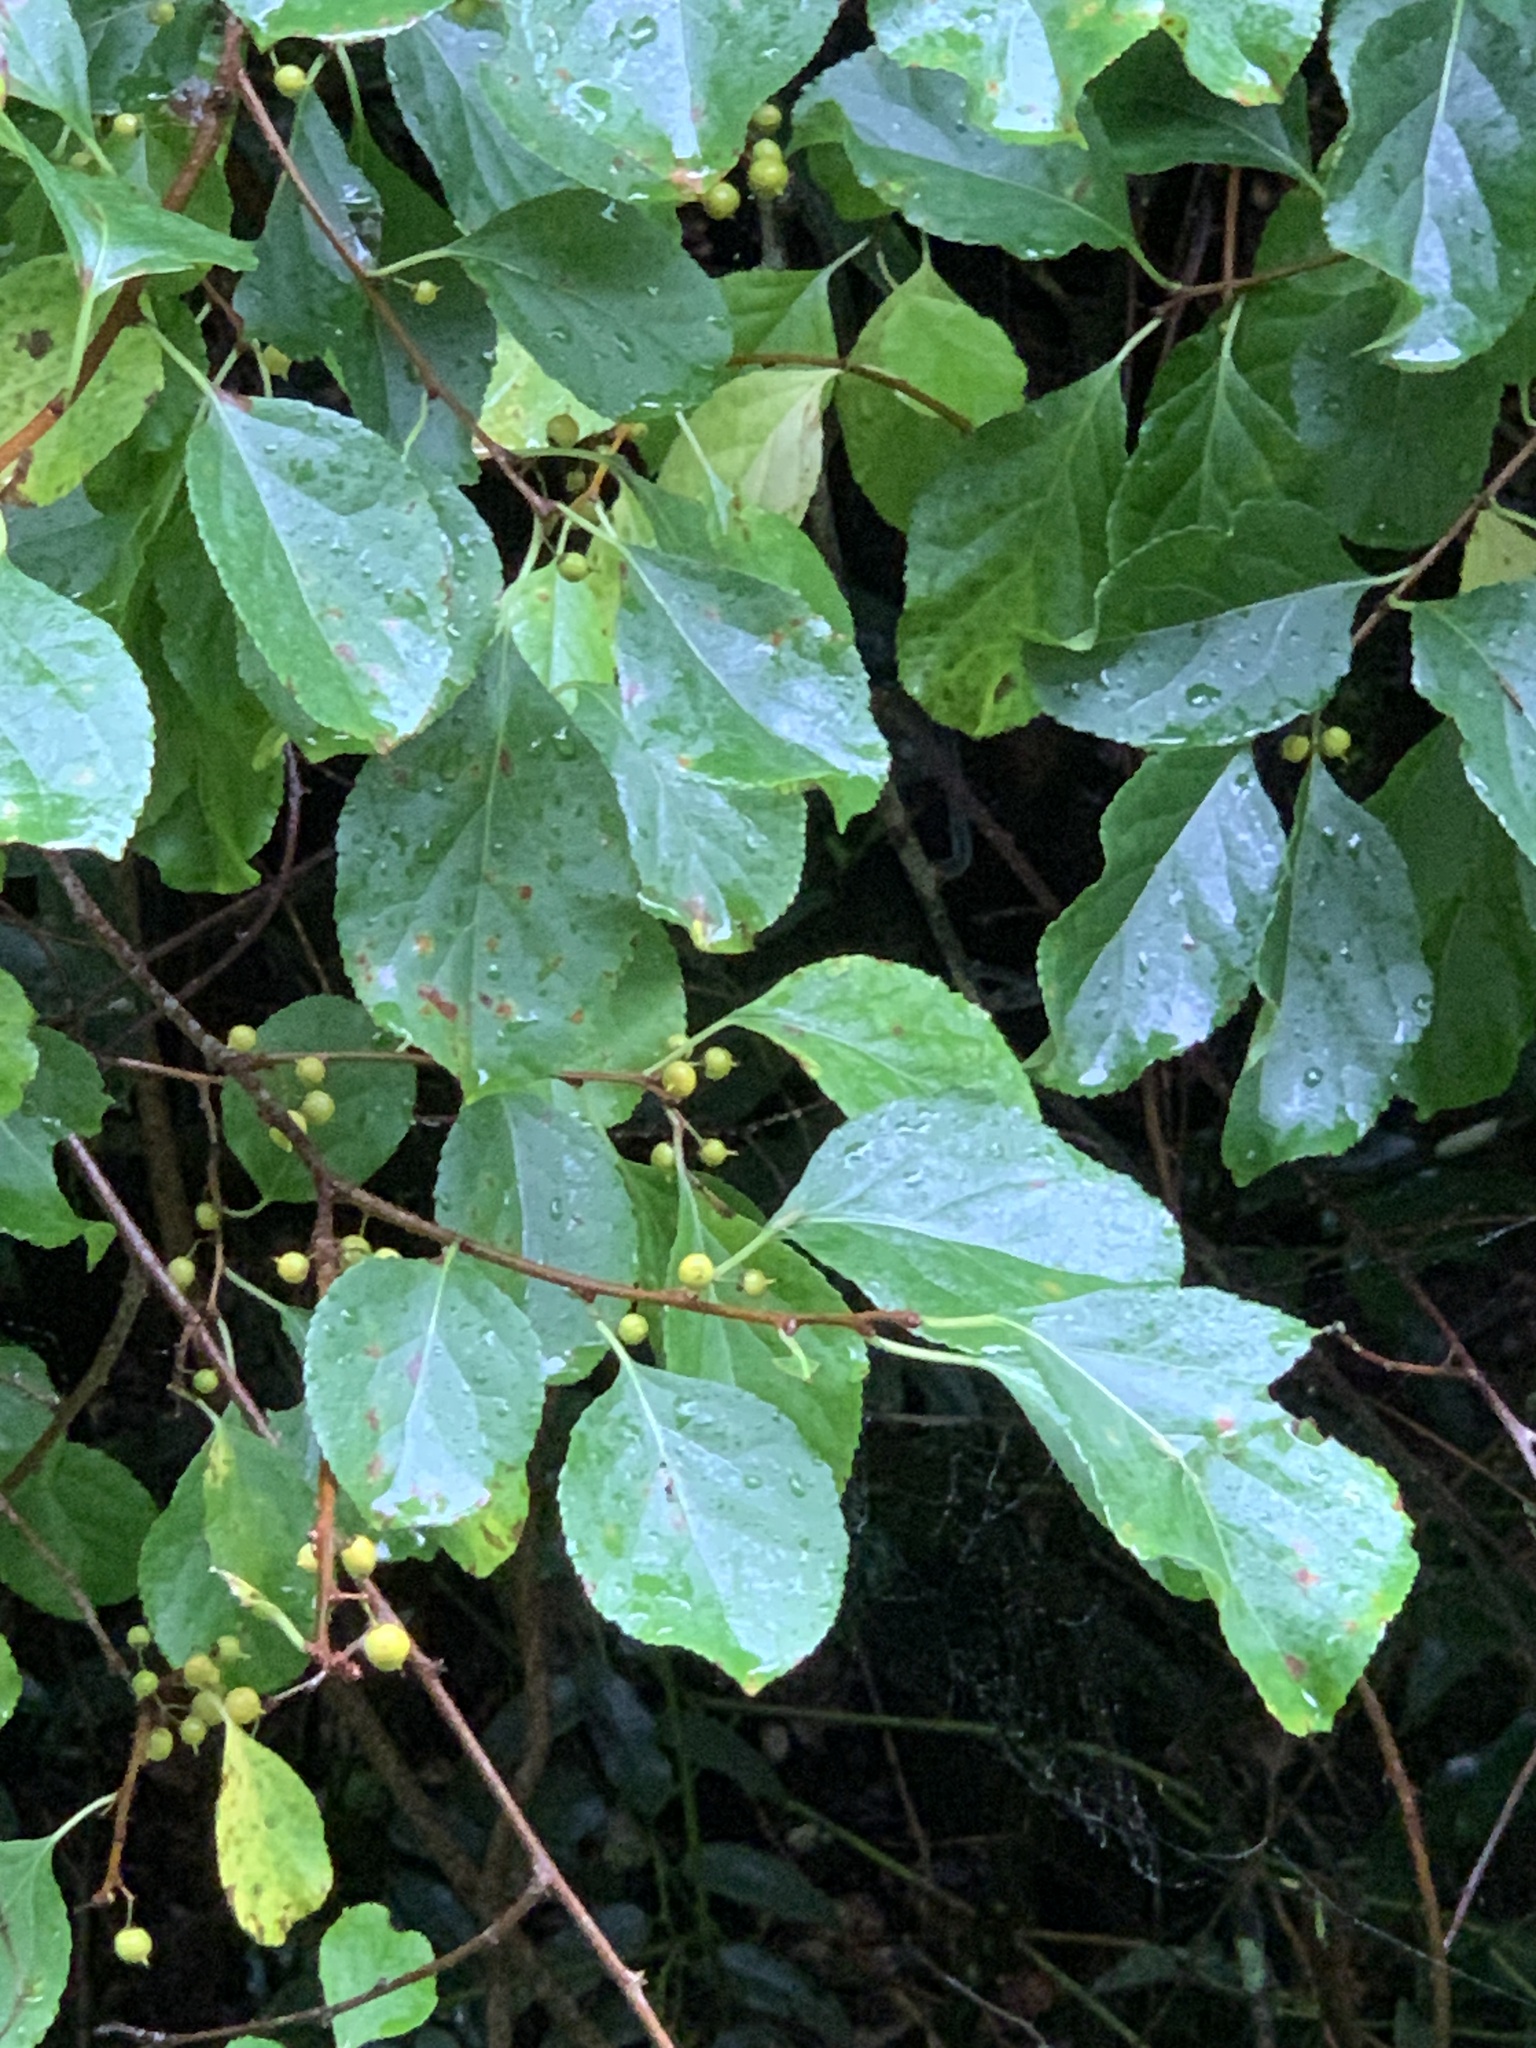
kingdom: Plantae
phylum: Tracheophyta
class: Magnoliopsida
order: Celastrales
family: Celastraceae
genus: Celastrus
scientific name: Celastrus orbiculatus
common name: Oriental bittersweet
